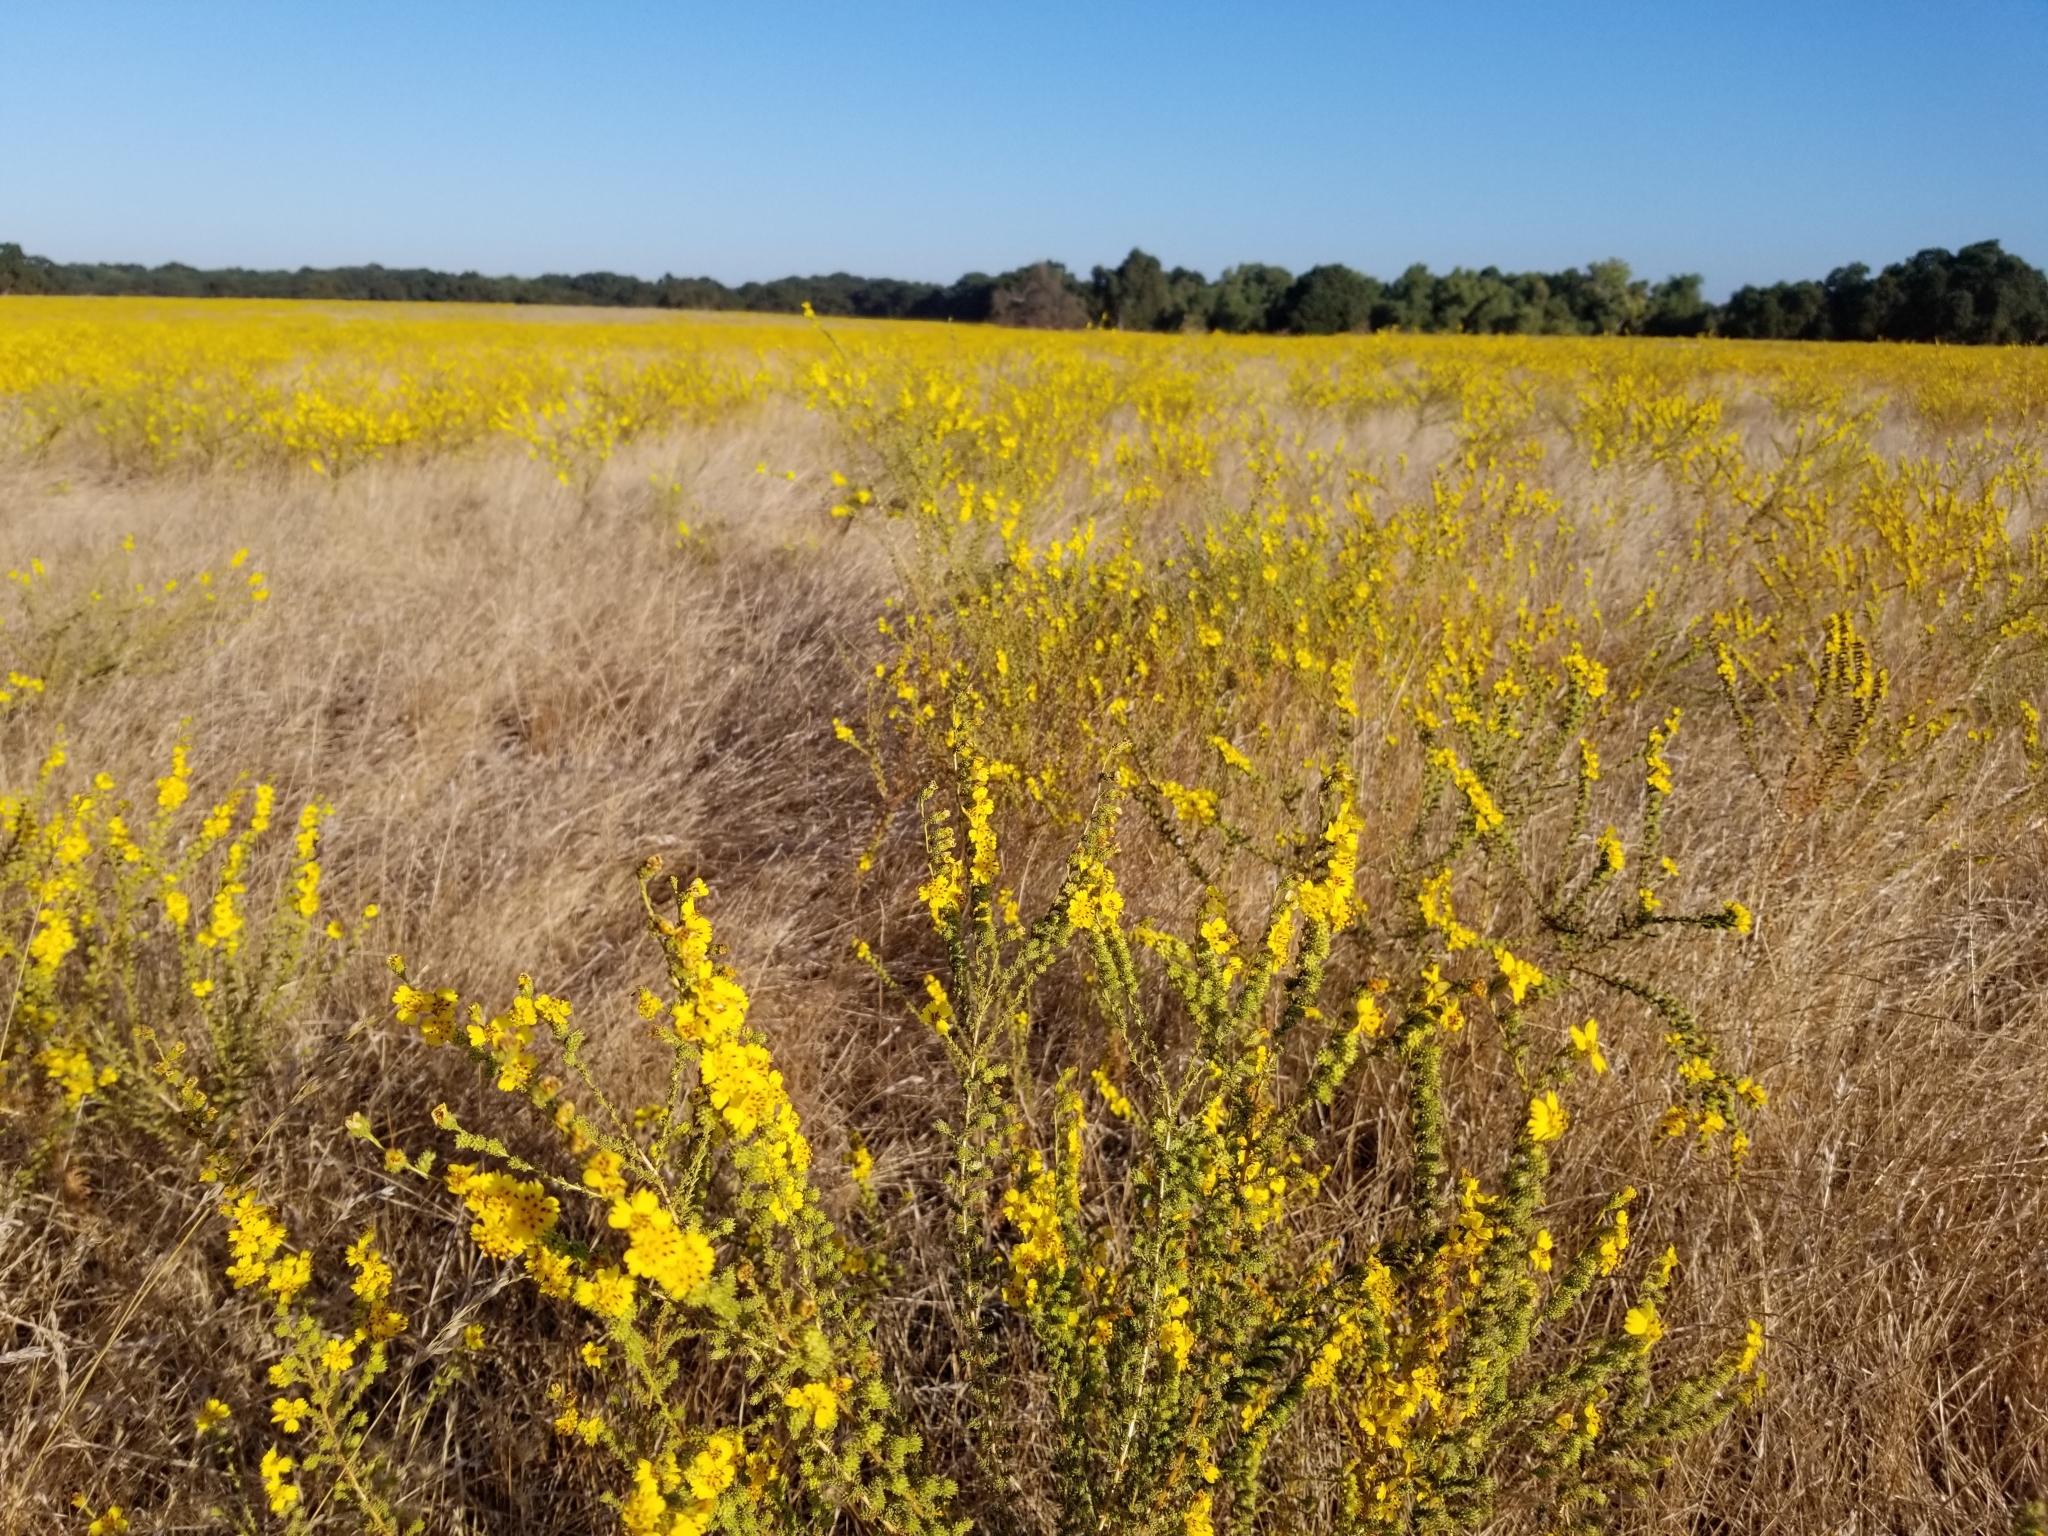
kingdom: Plantae
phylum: Tracheophyta
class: Magnoliopsida
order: Asterales
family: Asteraceae
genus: Holocarpha
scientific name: Holocarpha virgata
